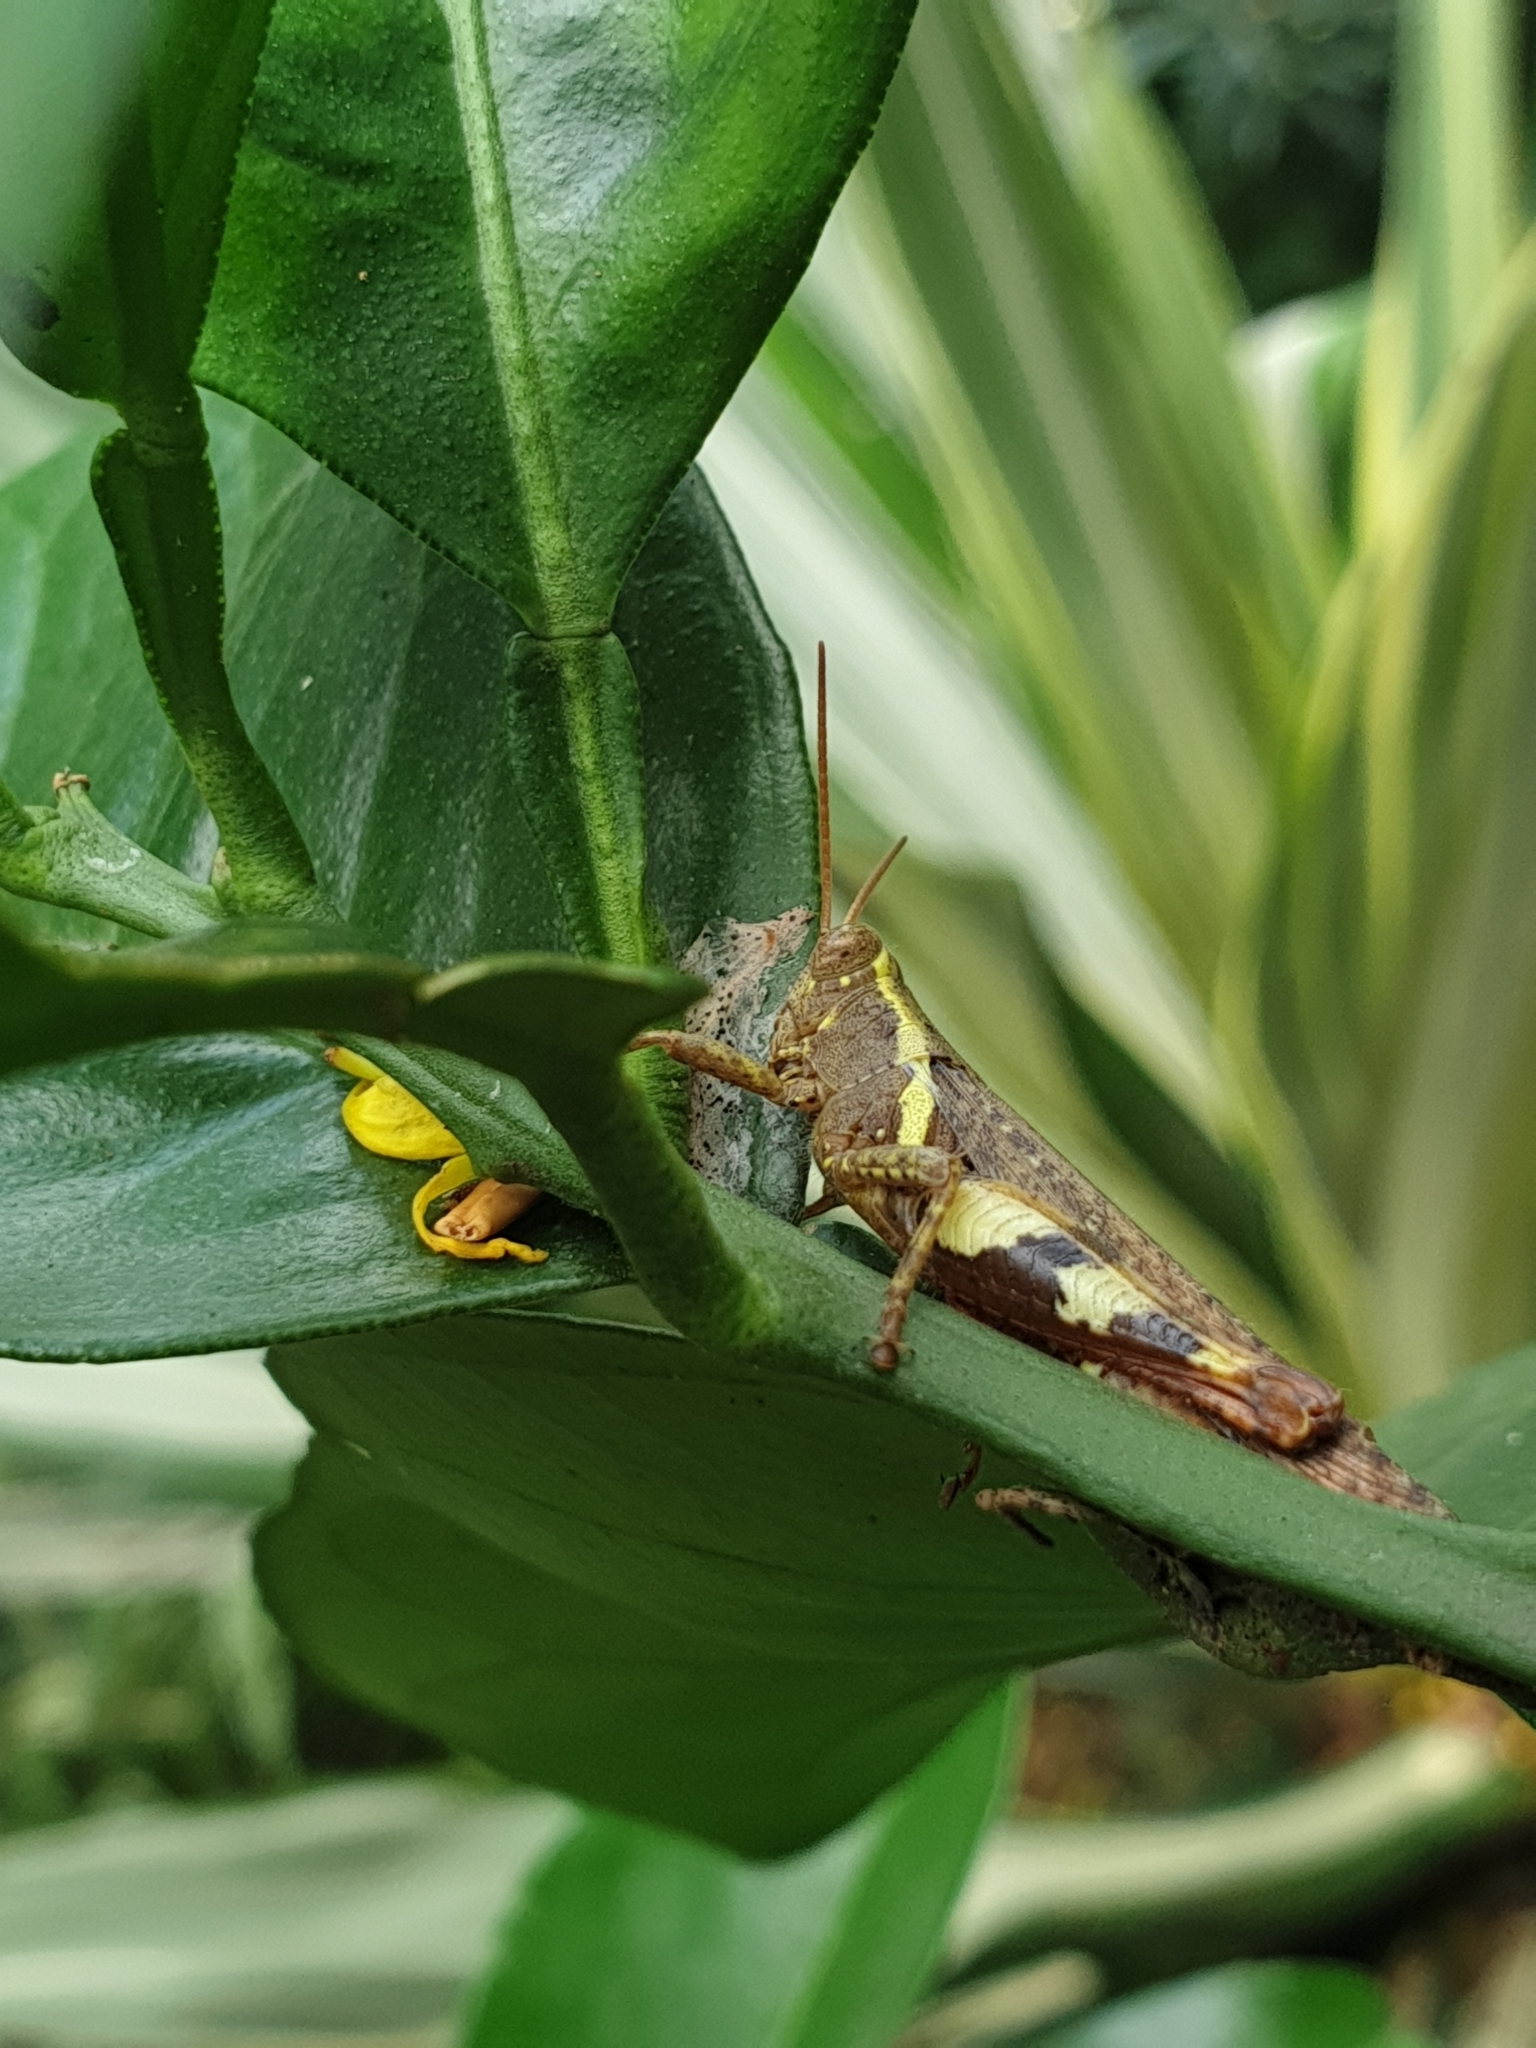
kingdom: Animalia
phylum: Arthropoda
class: Insecta
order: Orthoptera
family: Acrididae
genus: Xenocatantops
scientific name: Xenocatantops humile
